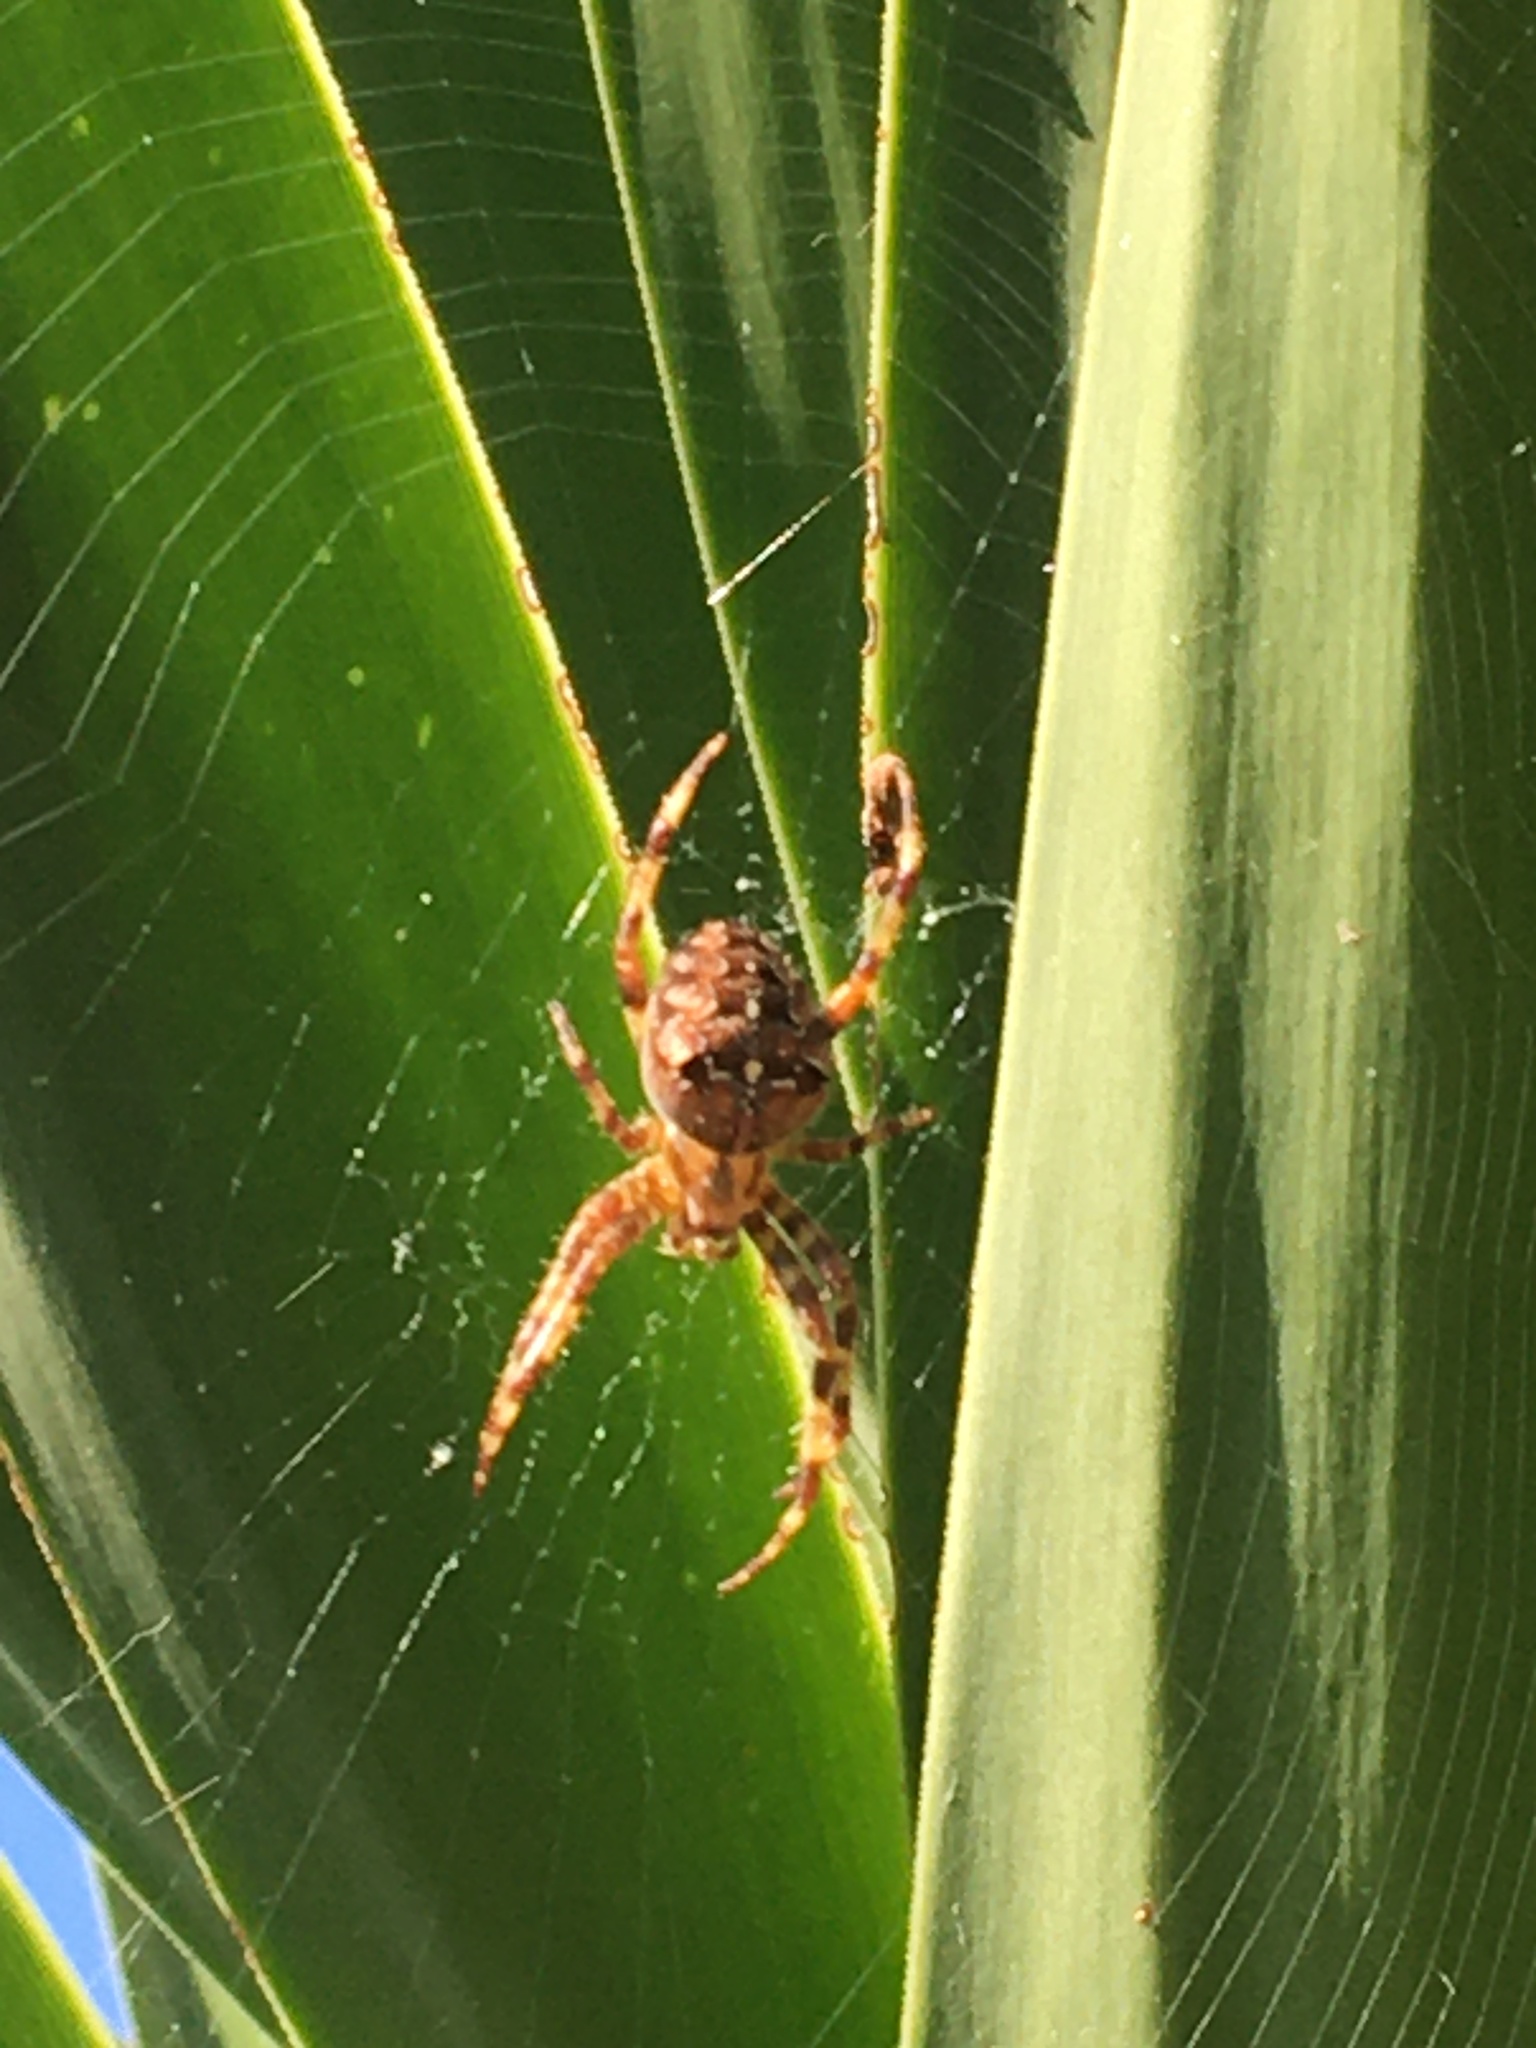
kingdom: Animalia
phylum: Arthropoda
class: Arachnida
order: Araneae
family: Araneidae
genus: Araneus
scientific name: Araneus diadematus
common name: Cross orbweaver
